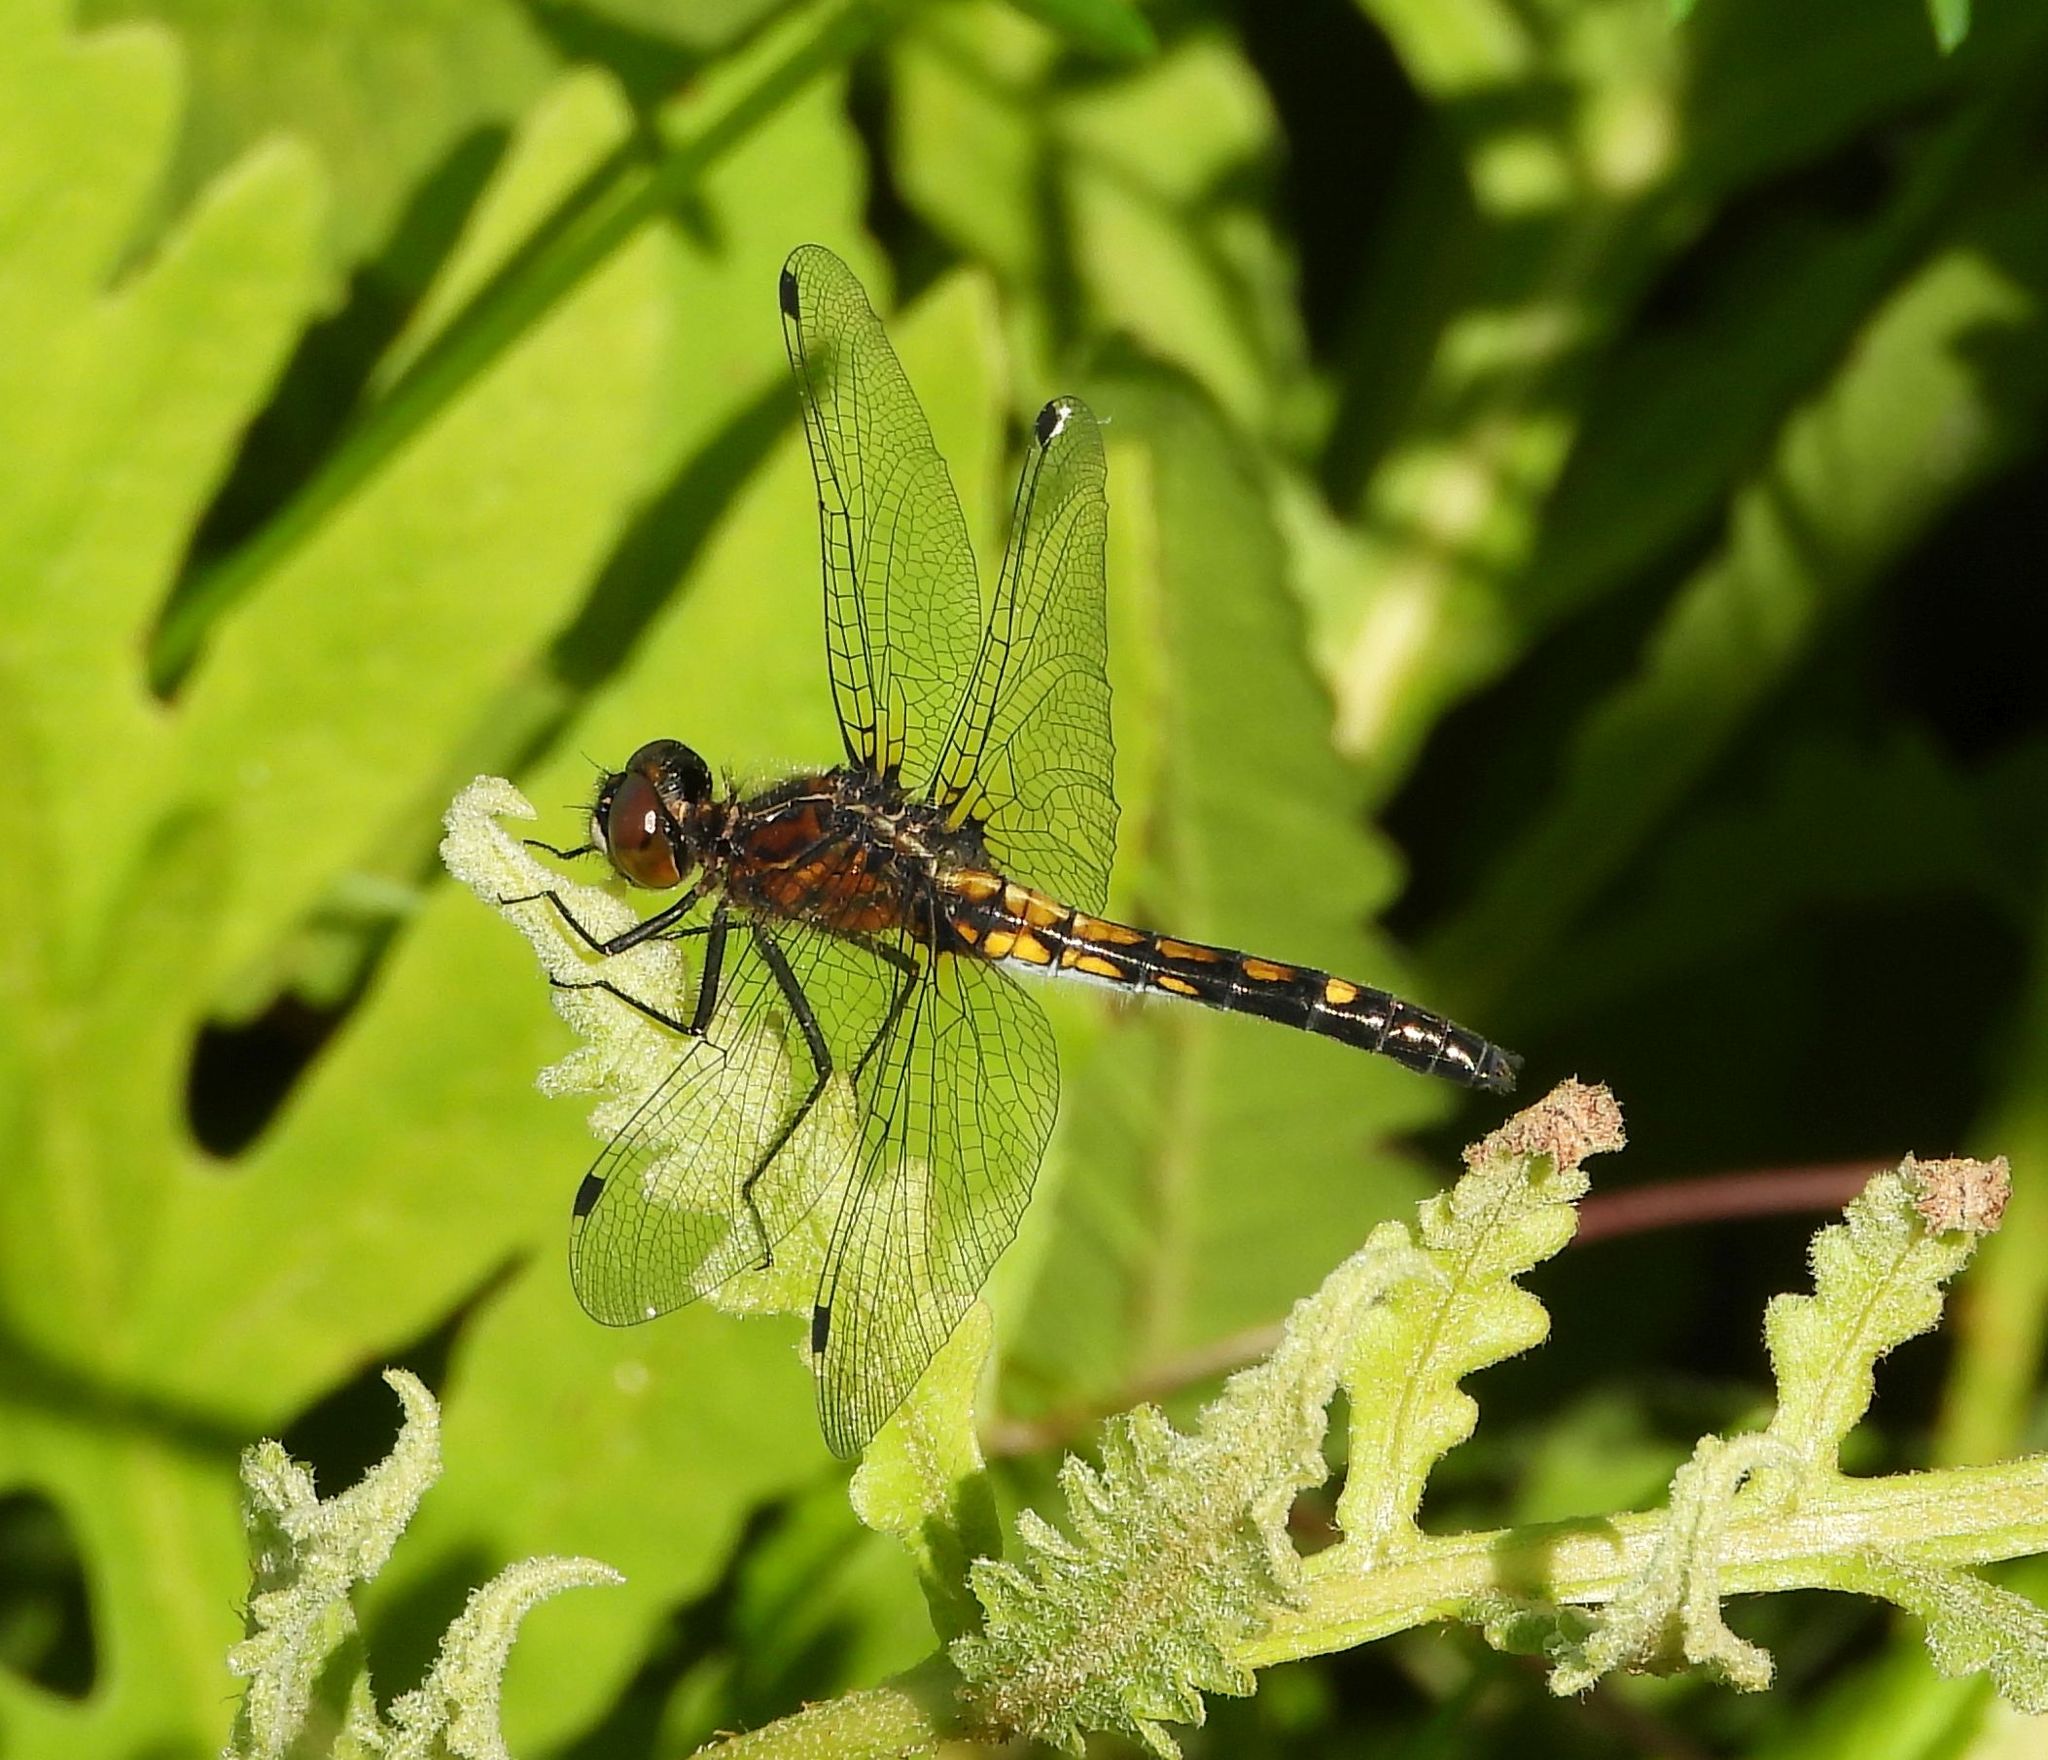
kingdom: Animalia
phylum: Arthropoda
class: Insecta
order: Odonata
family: Libellulidae
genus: Leucorrhinia
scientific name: Leucorrhinia intacta
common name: Dot-tailed whiteface
